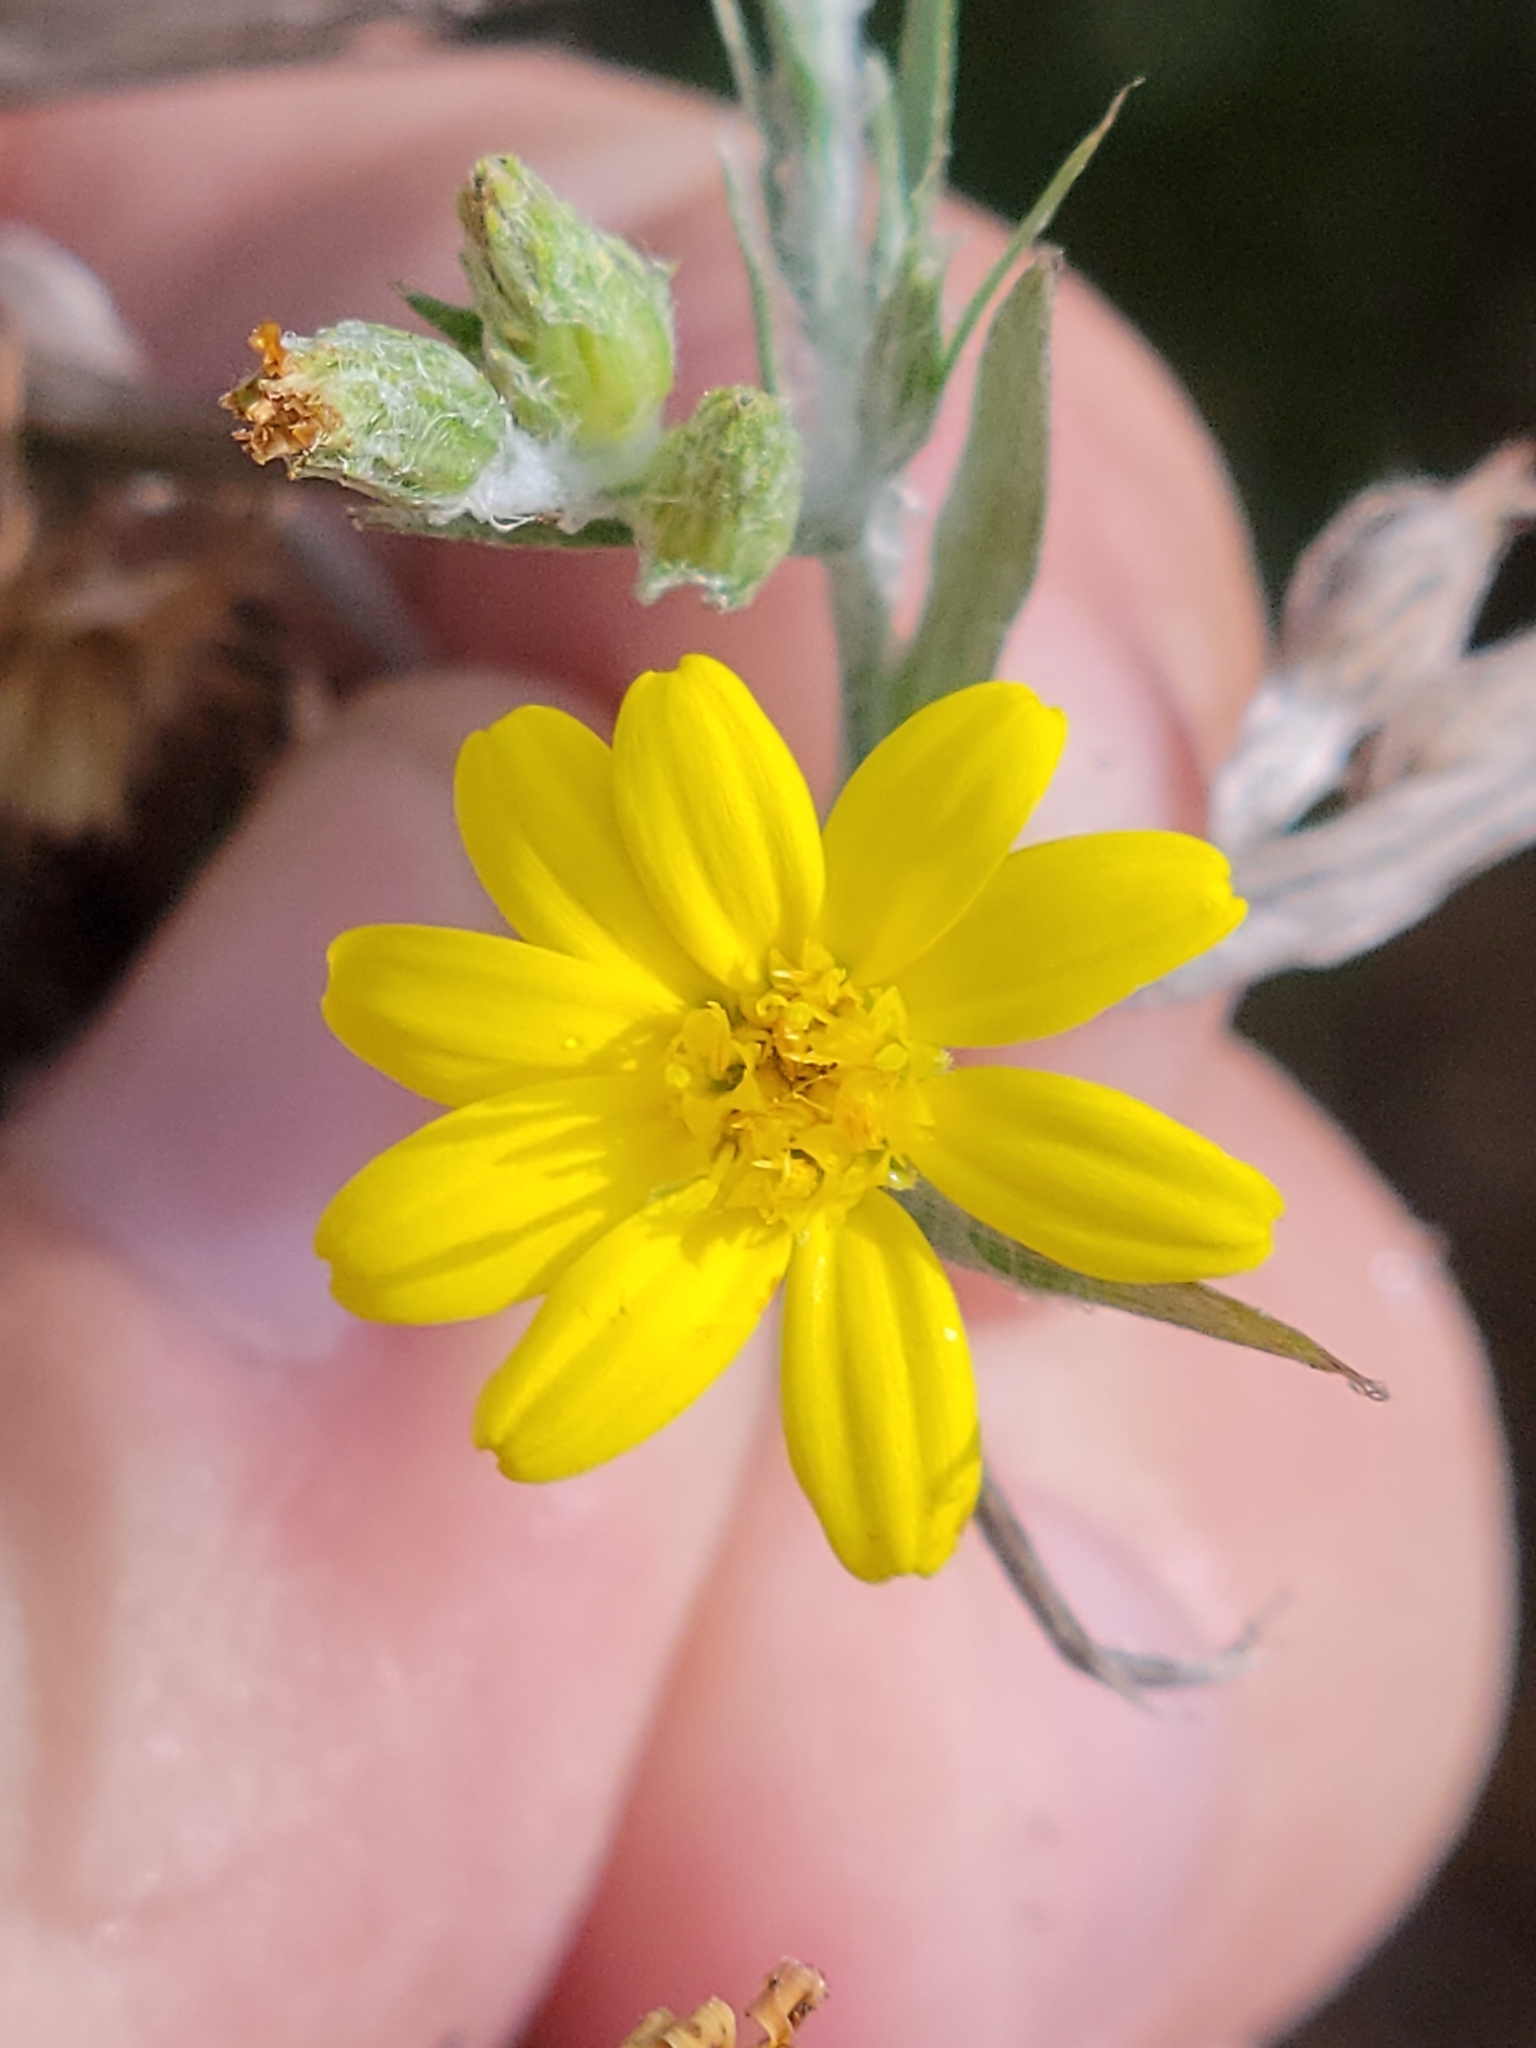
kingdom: Plantae
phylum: Tracheophyta
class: Magnoliopsida
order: Asterales
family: Asteraceae
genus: Pityopsis
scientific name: Pityopsis latifolia
